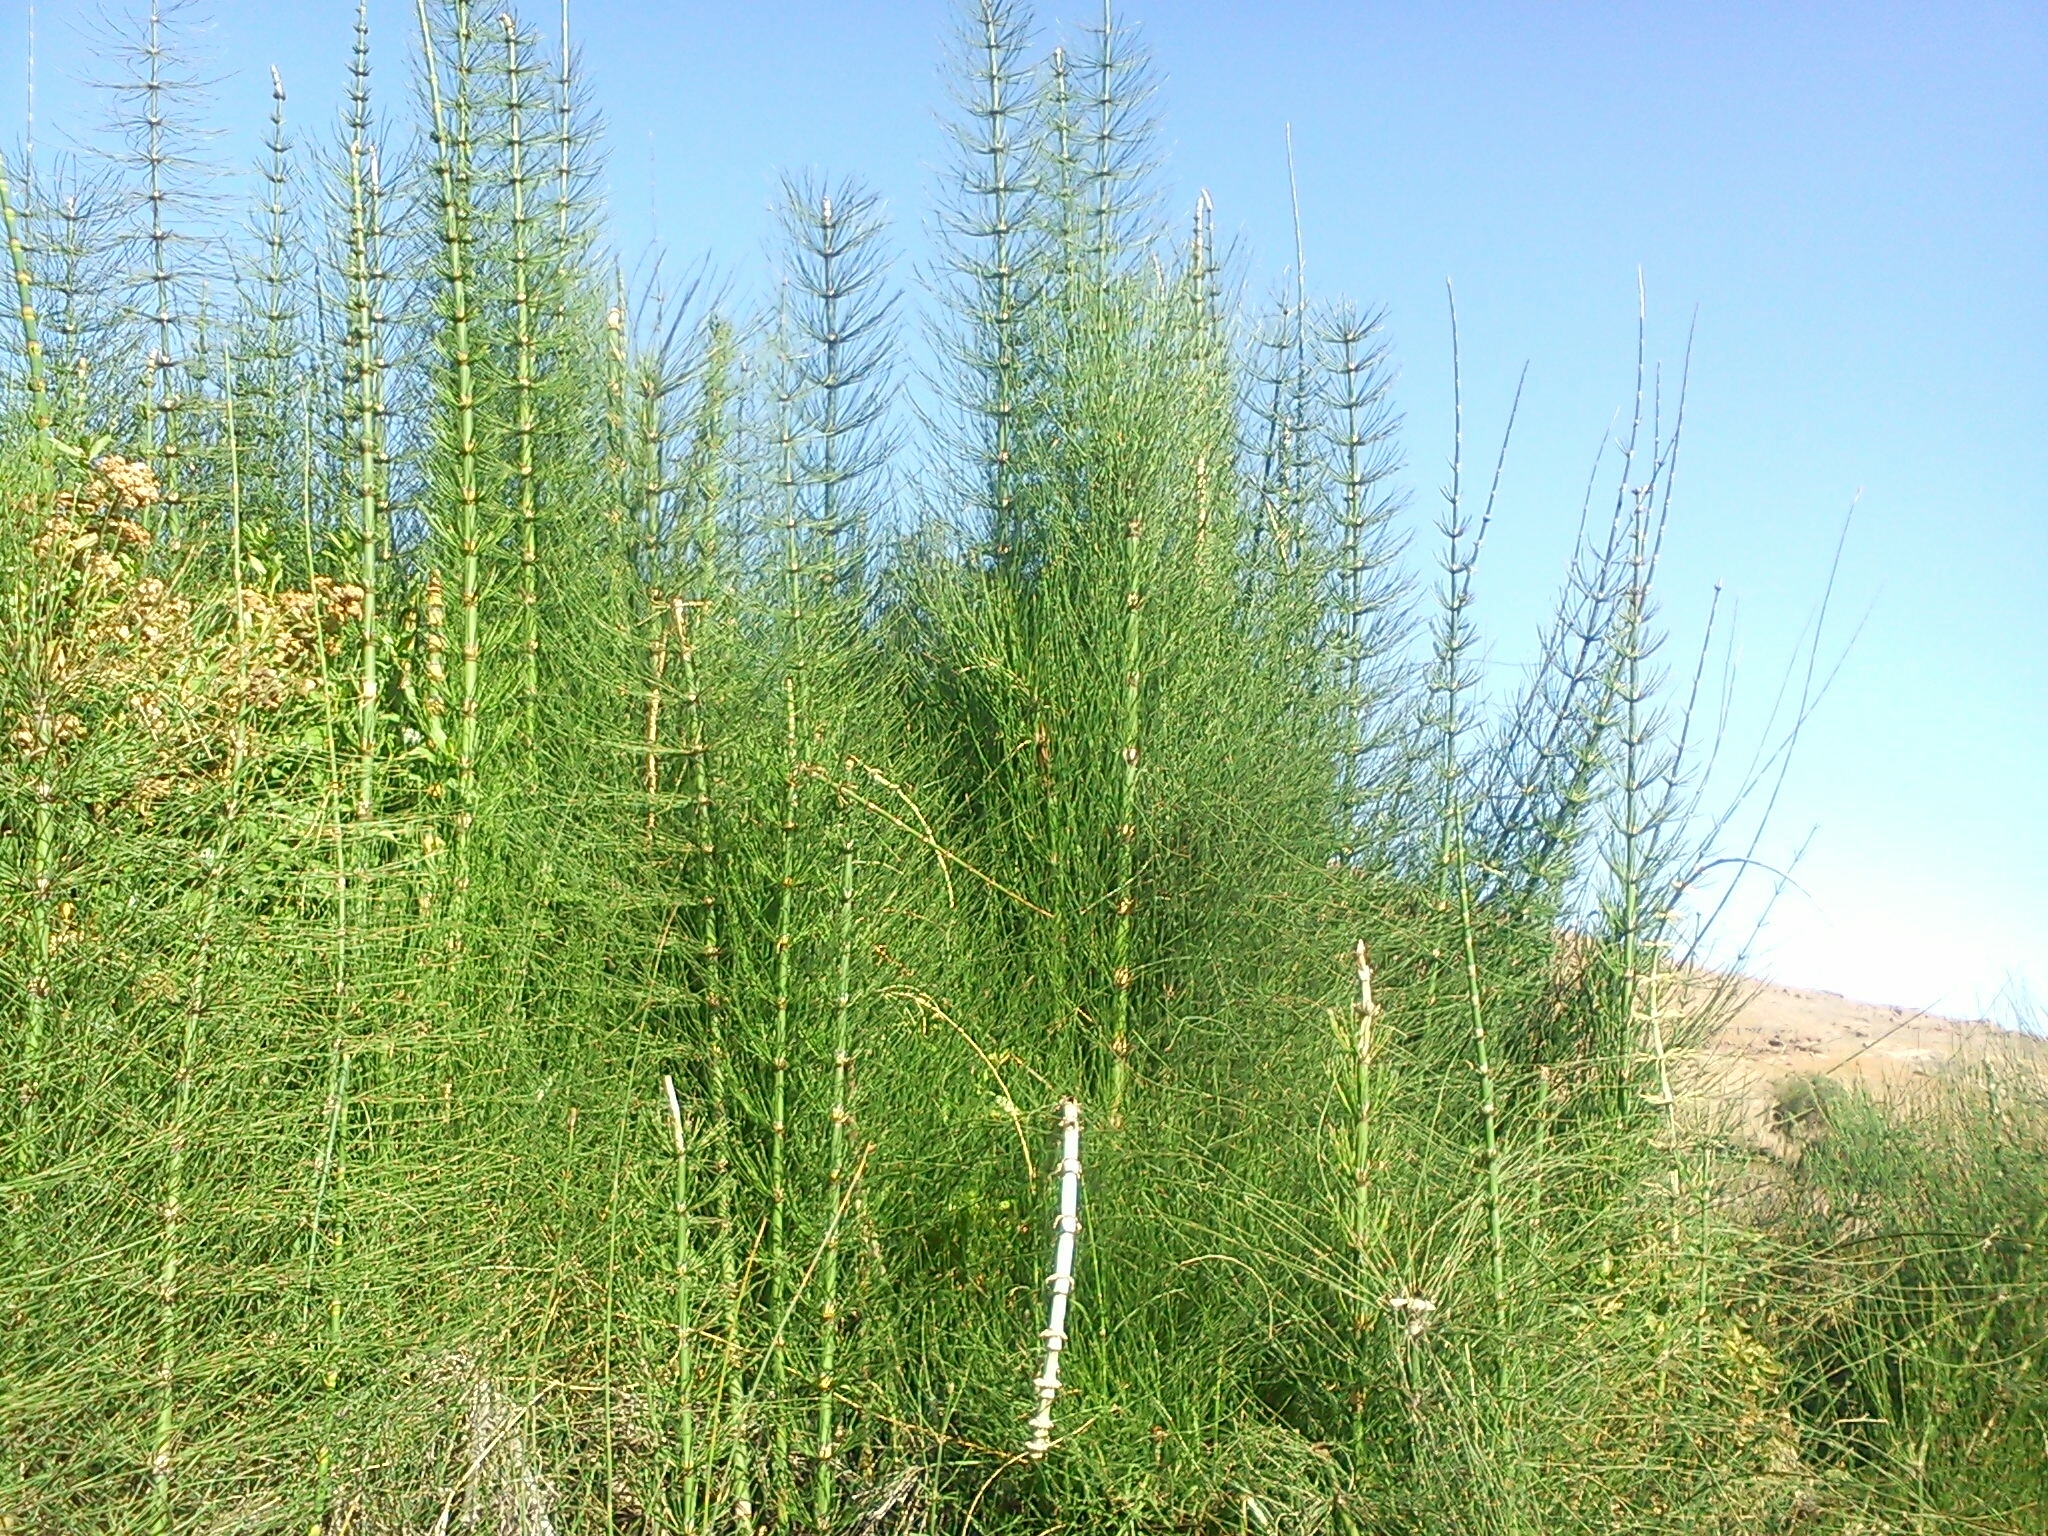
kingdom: Plantae
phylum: Tracheophyta
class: Polypodiopsida
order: Equisetales
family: Equisetaceae
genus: Equisetum
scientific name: Equisetum giganteum
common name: Giant horsetail
